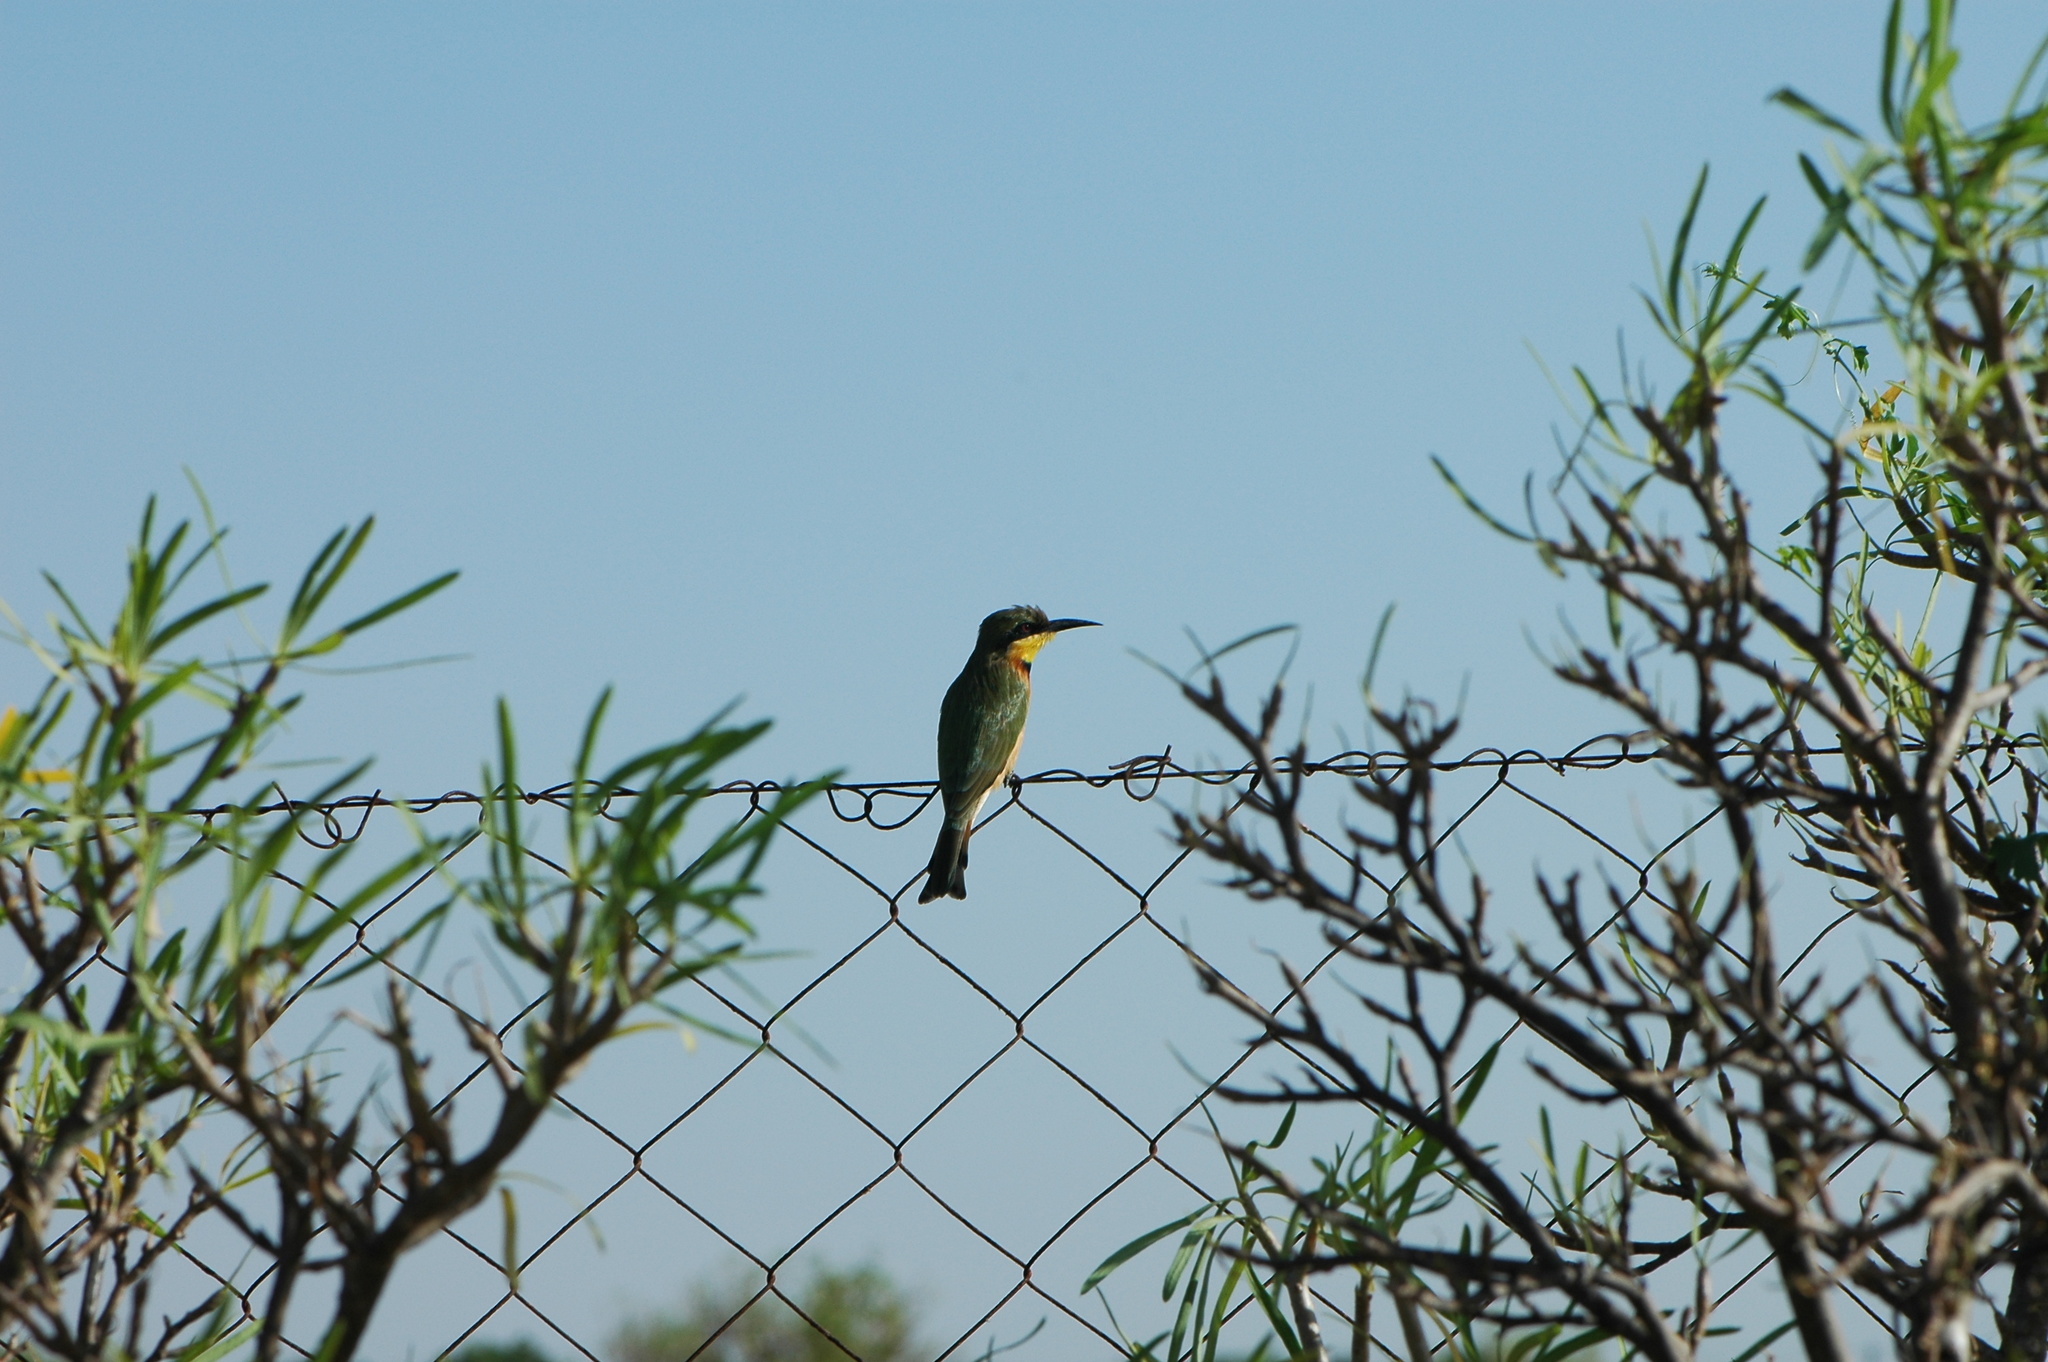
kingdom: Animalia
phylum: Chordata
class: Aves
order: Coraciiformes
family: Meropidae
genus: Merops
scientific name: Merops pusillus
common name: Little bee-eater
